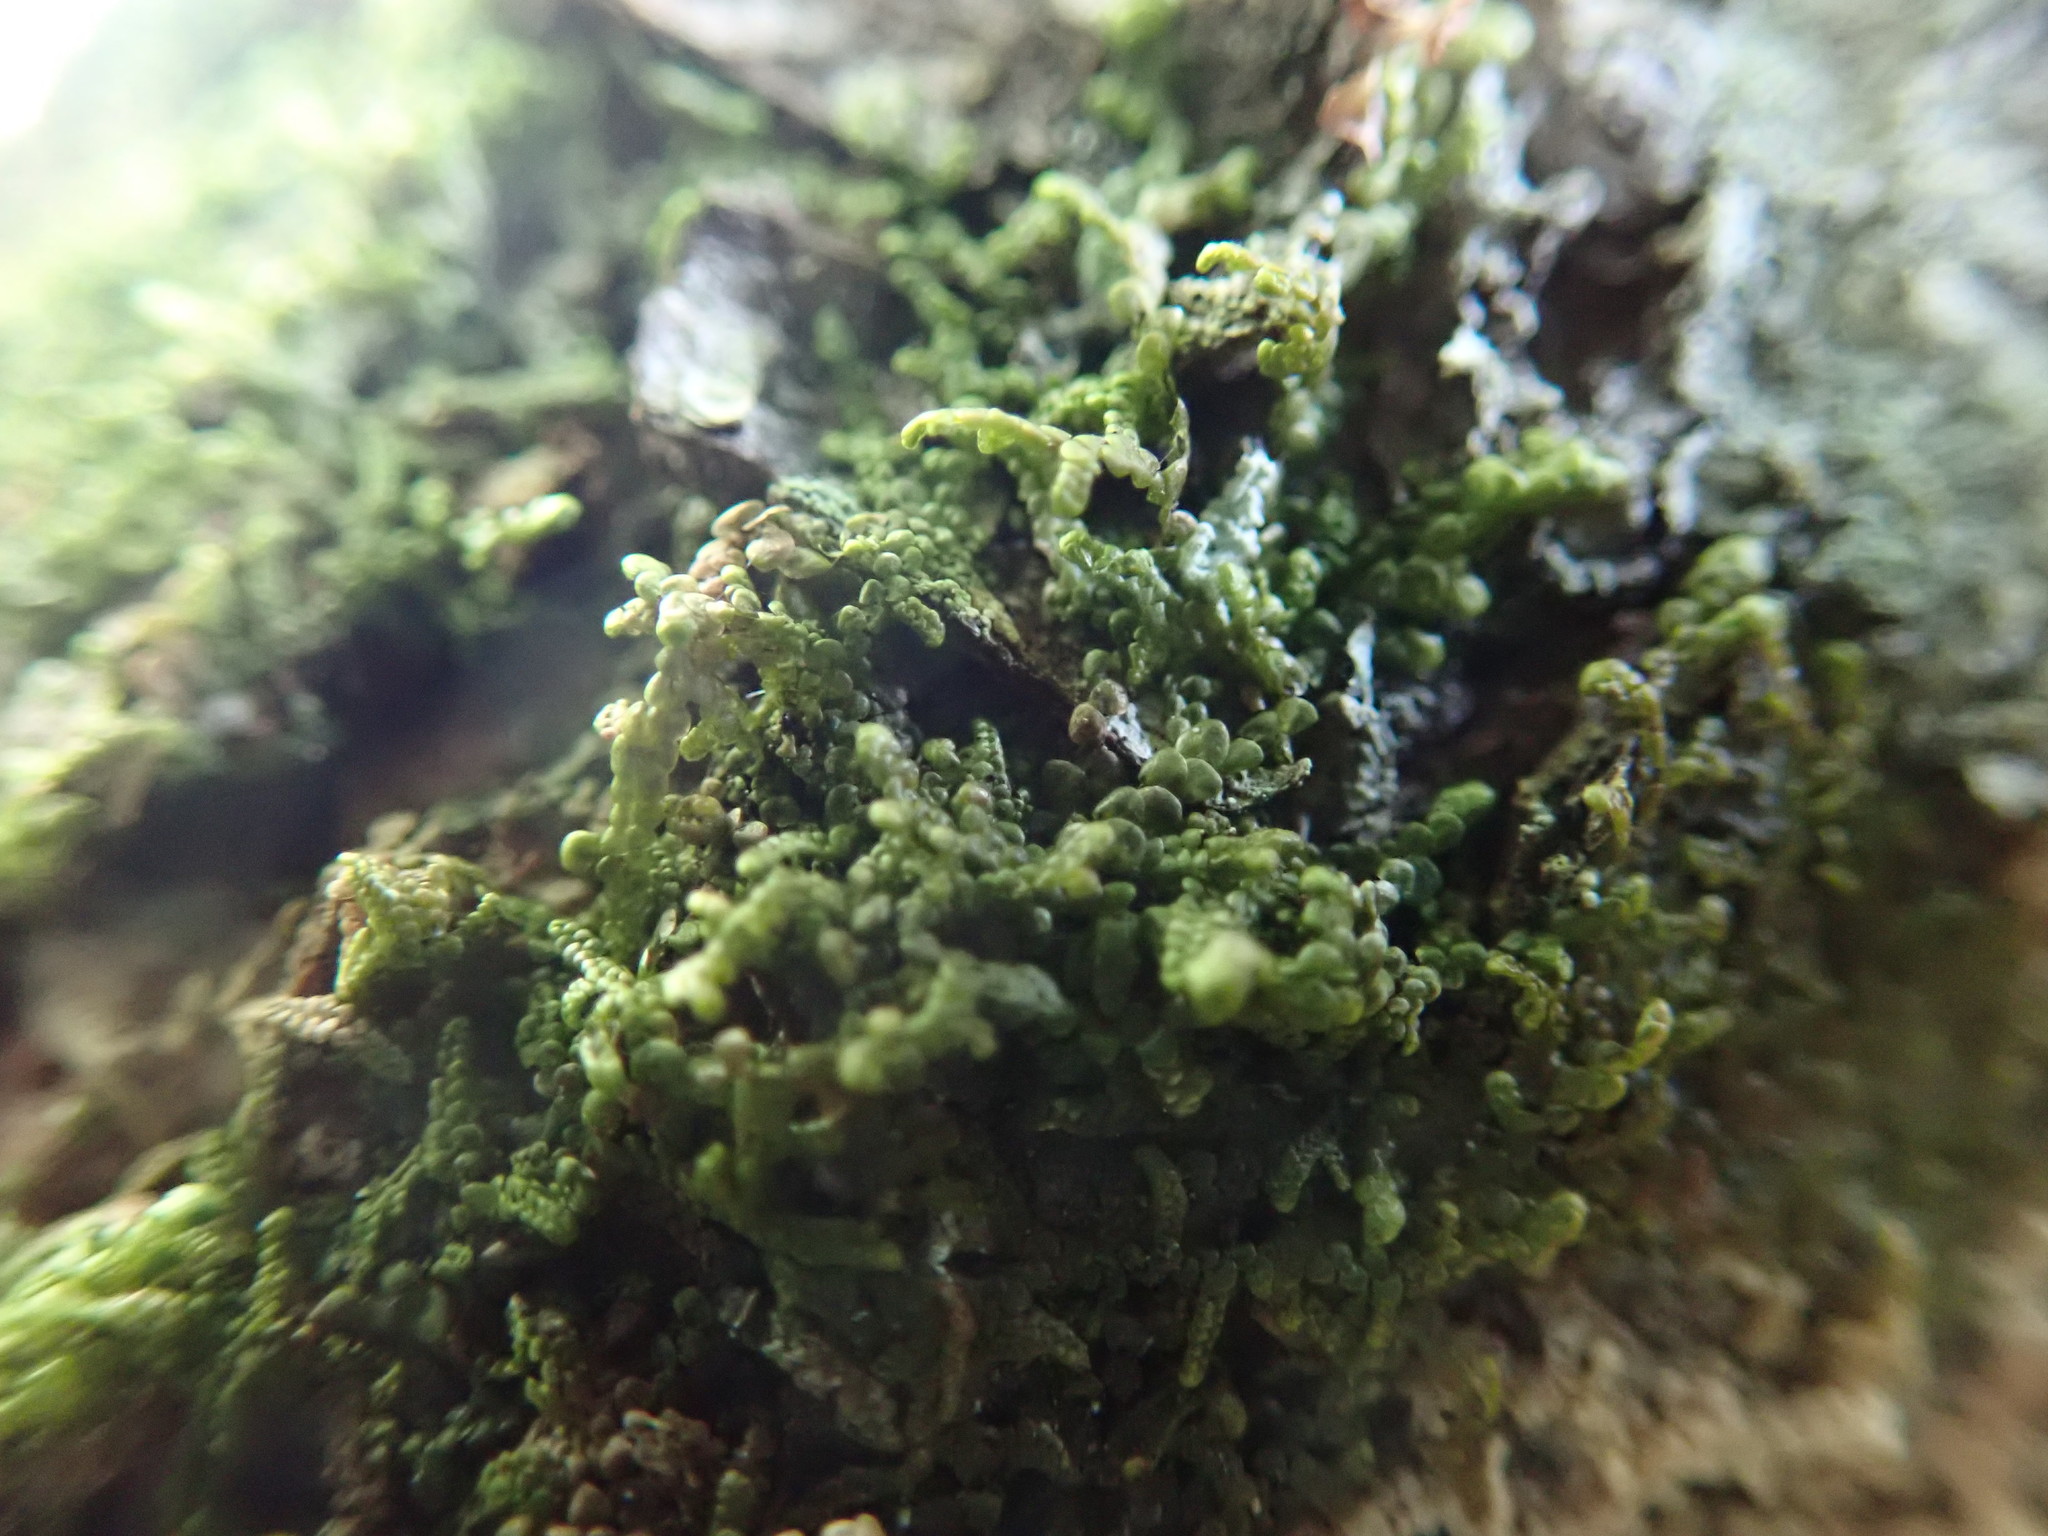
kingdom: Plantae
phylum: Marchantiophyta
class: Jungermanniopsida
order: Porellales
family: Frullaniaceae
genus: Frullania
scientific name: Frullania nisquallensis
